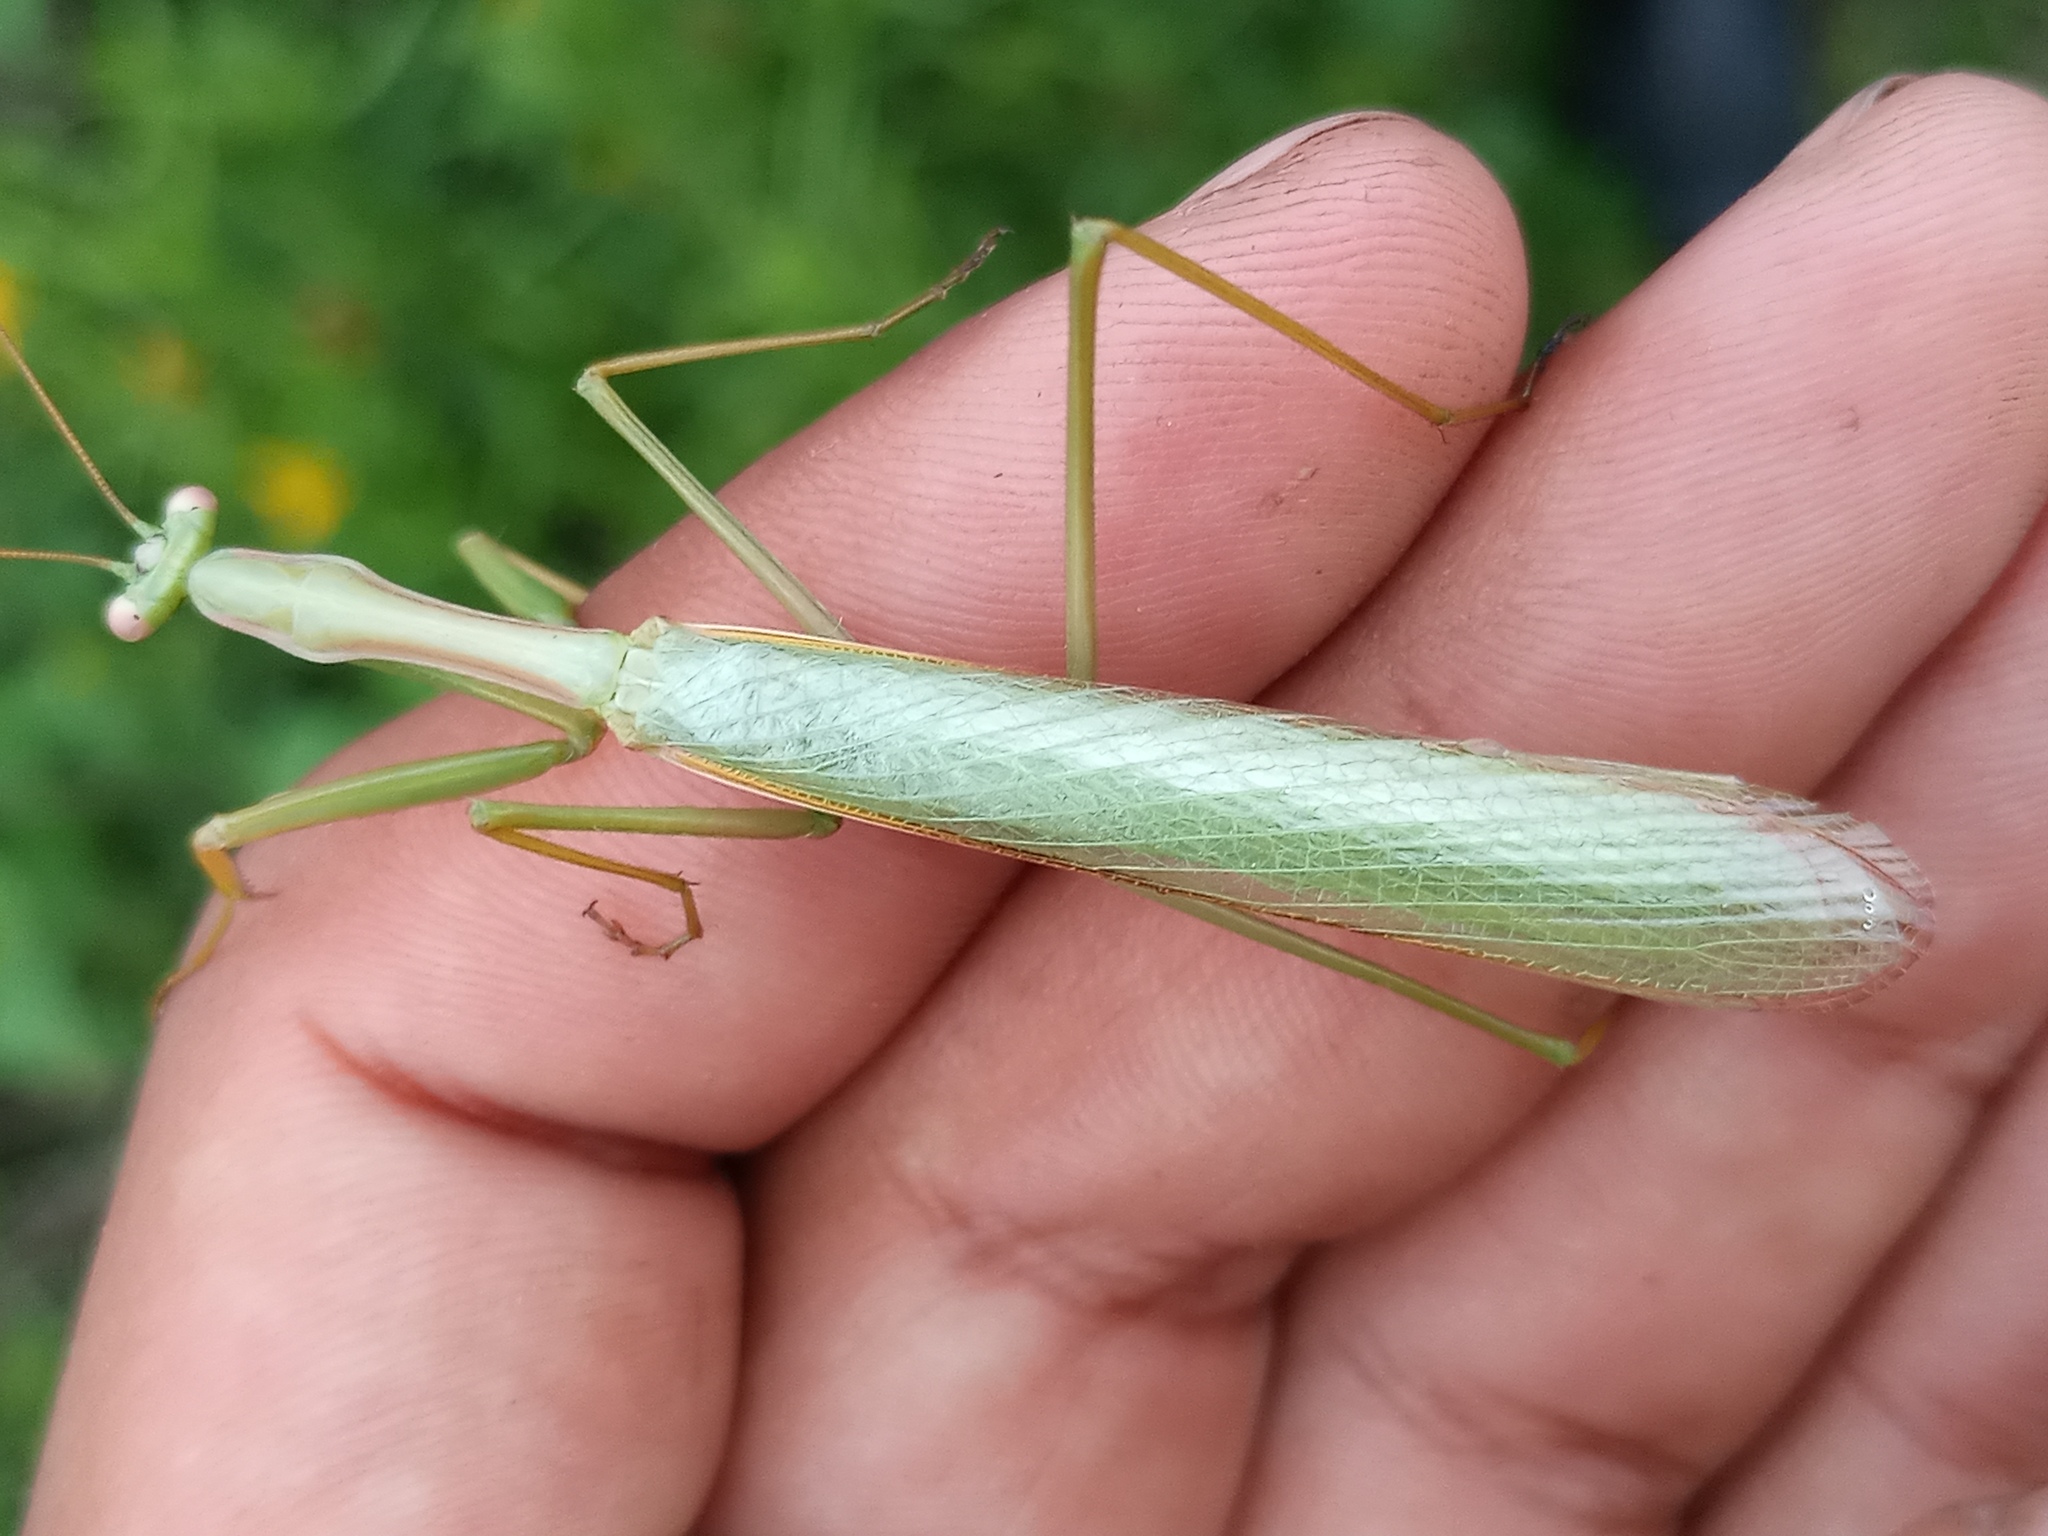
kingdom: Animalia
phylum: Arthropoda
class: Insecta
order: Mantodea
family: Coptopterygidae
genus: Coptopteryx
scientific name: Coptopteryx argentina
